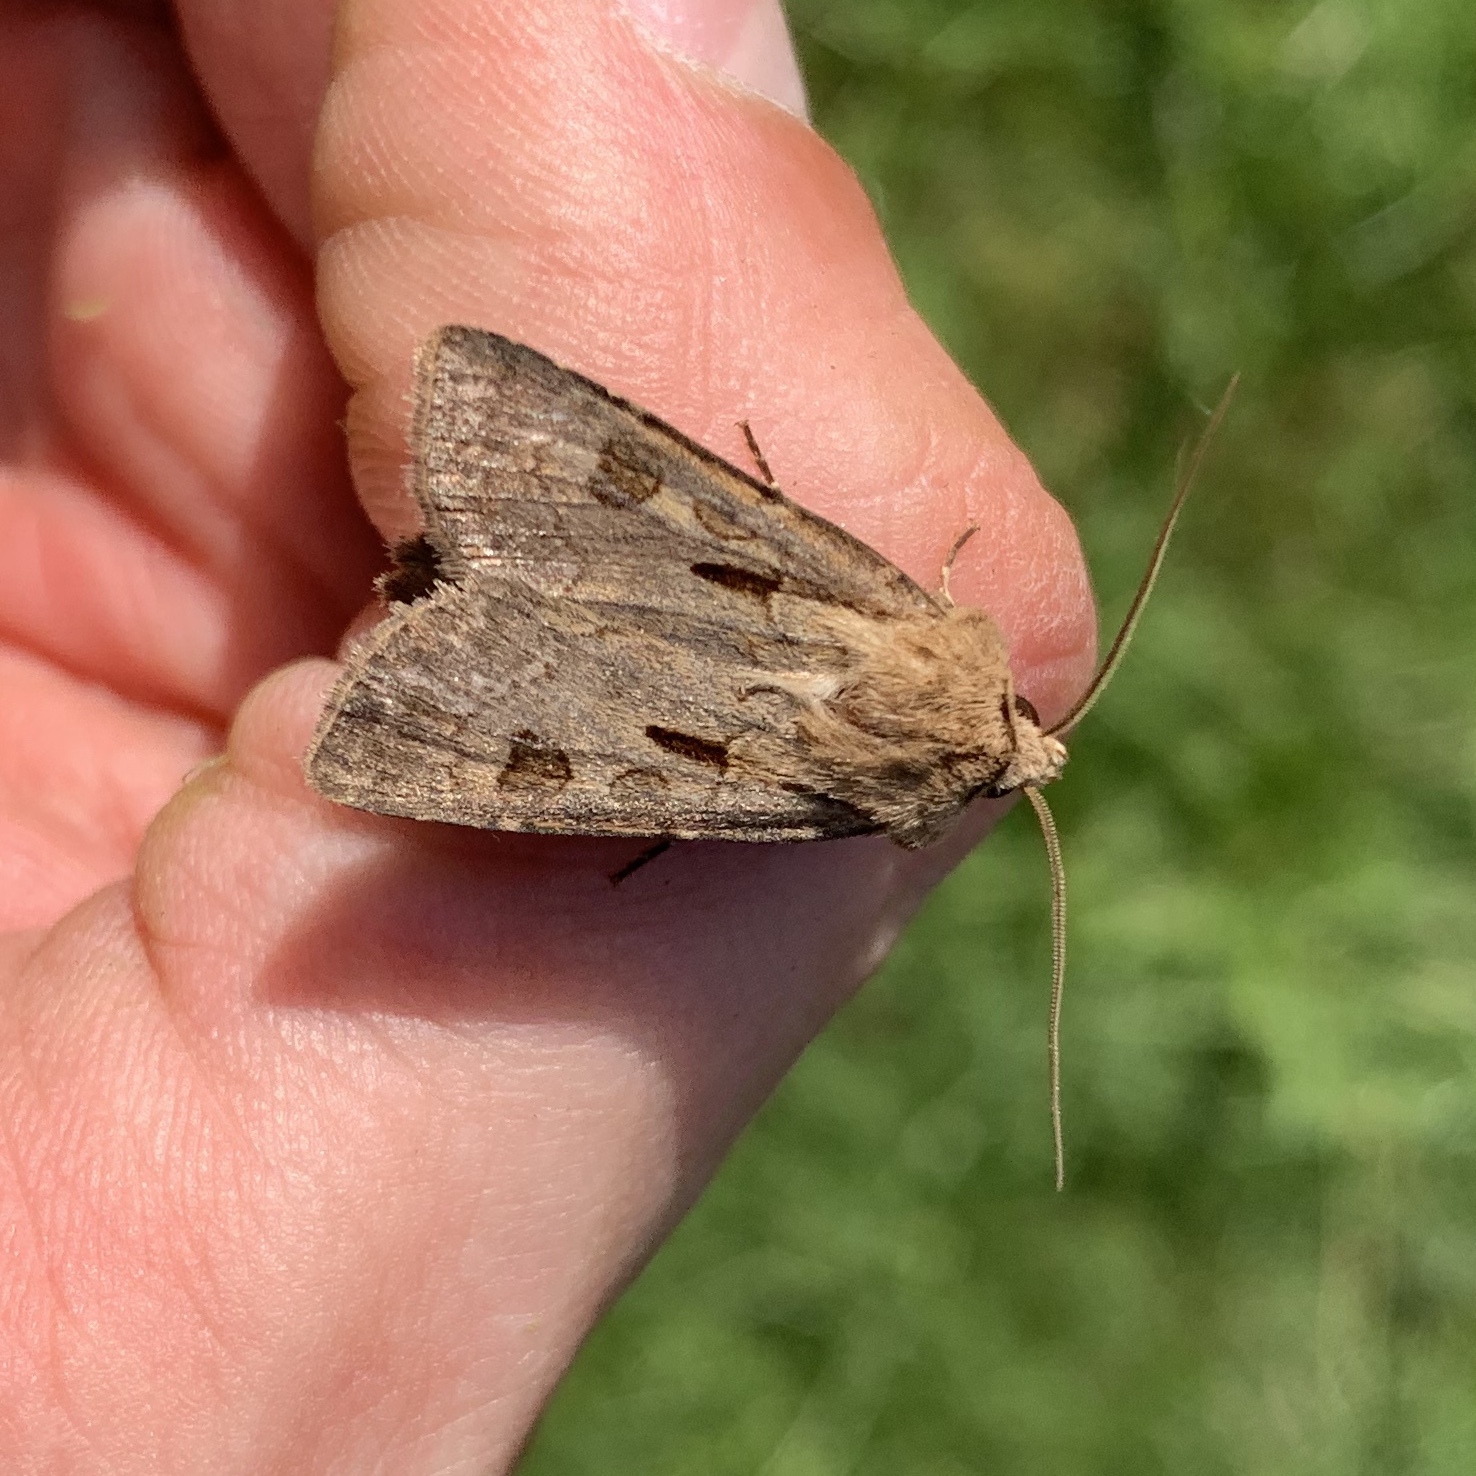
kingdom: Animalia
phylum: Arthropoda
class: Insecta
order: Lepidoptera
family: Noctuidae
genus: Agrotis
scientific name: Agrotis exclamationis
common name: Heart and dart
